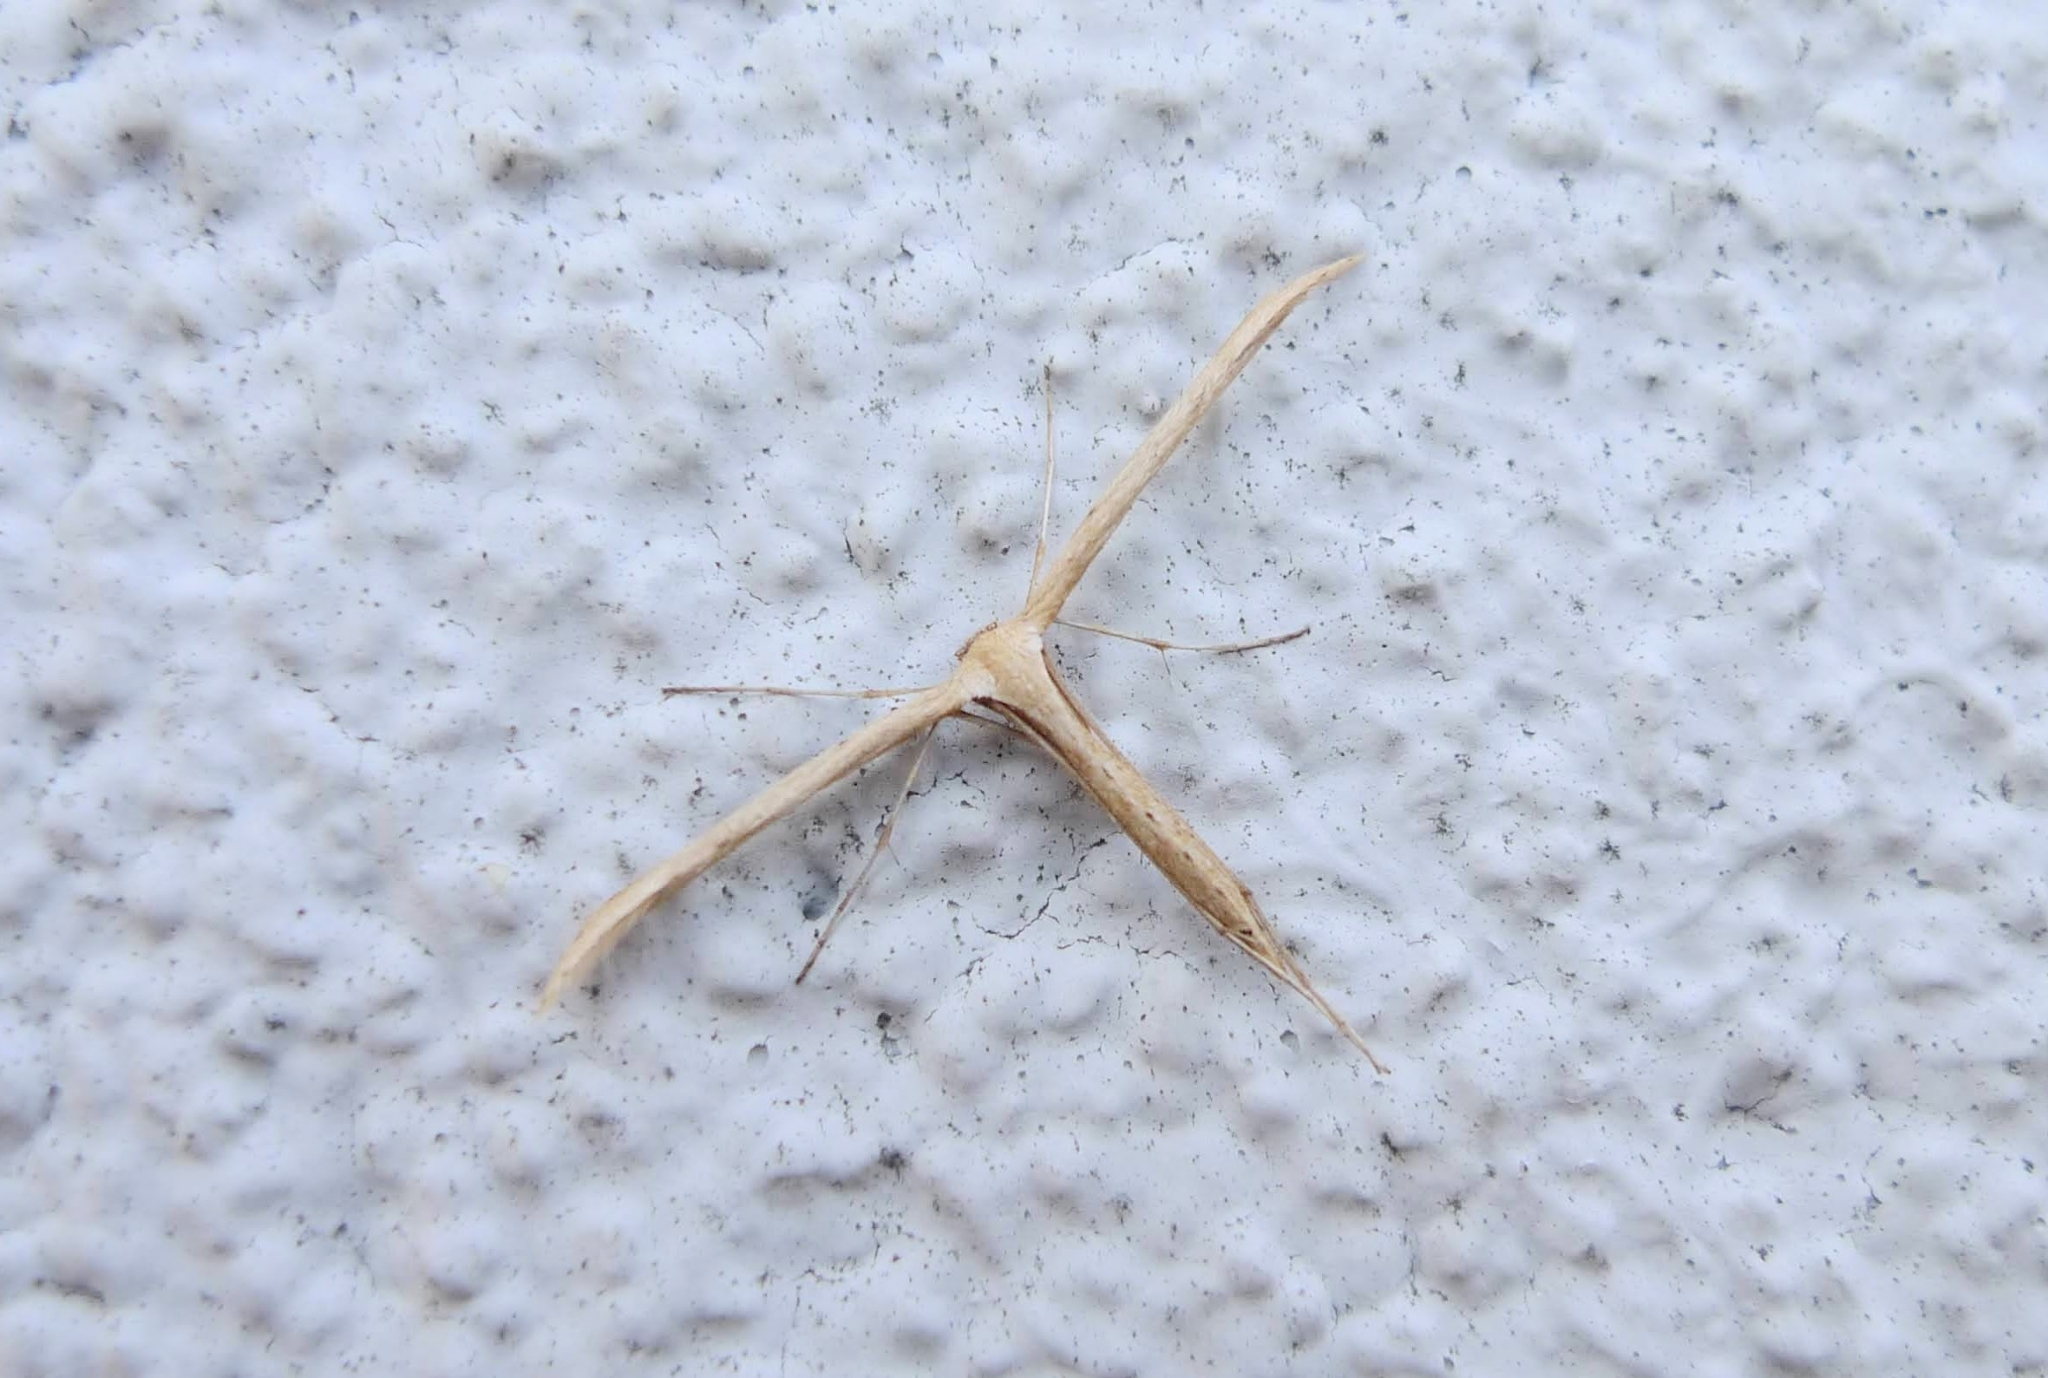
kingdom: Animalia
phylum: Arthropoda
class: Insecta
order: Lepidoptera
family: Pterophoridae
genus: Emmelina
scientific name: Emmelina monodactyla
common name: Common plume
